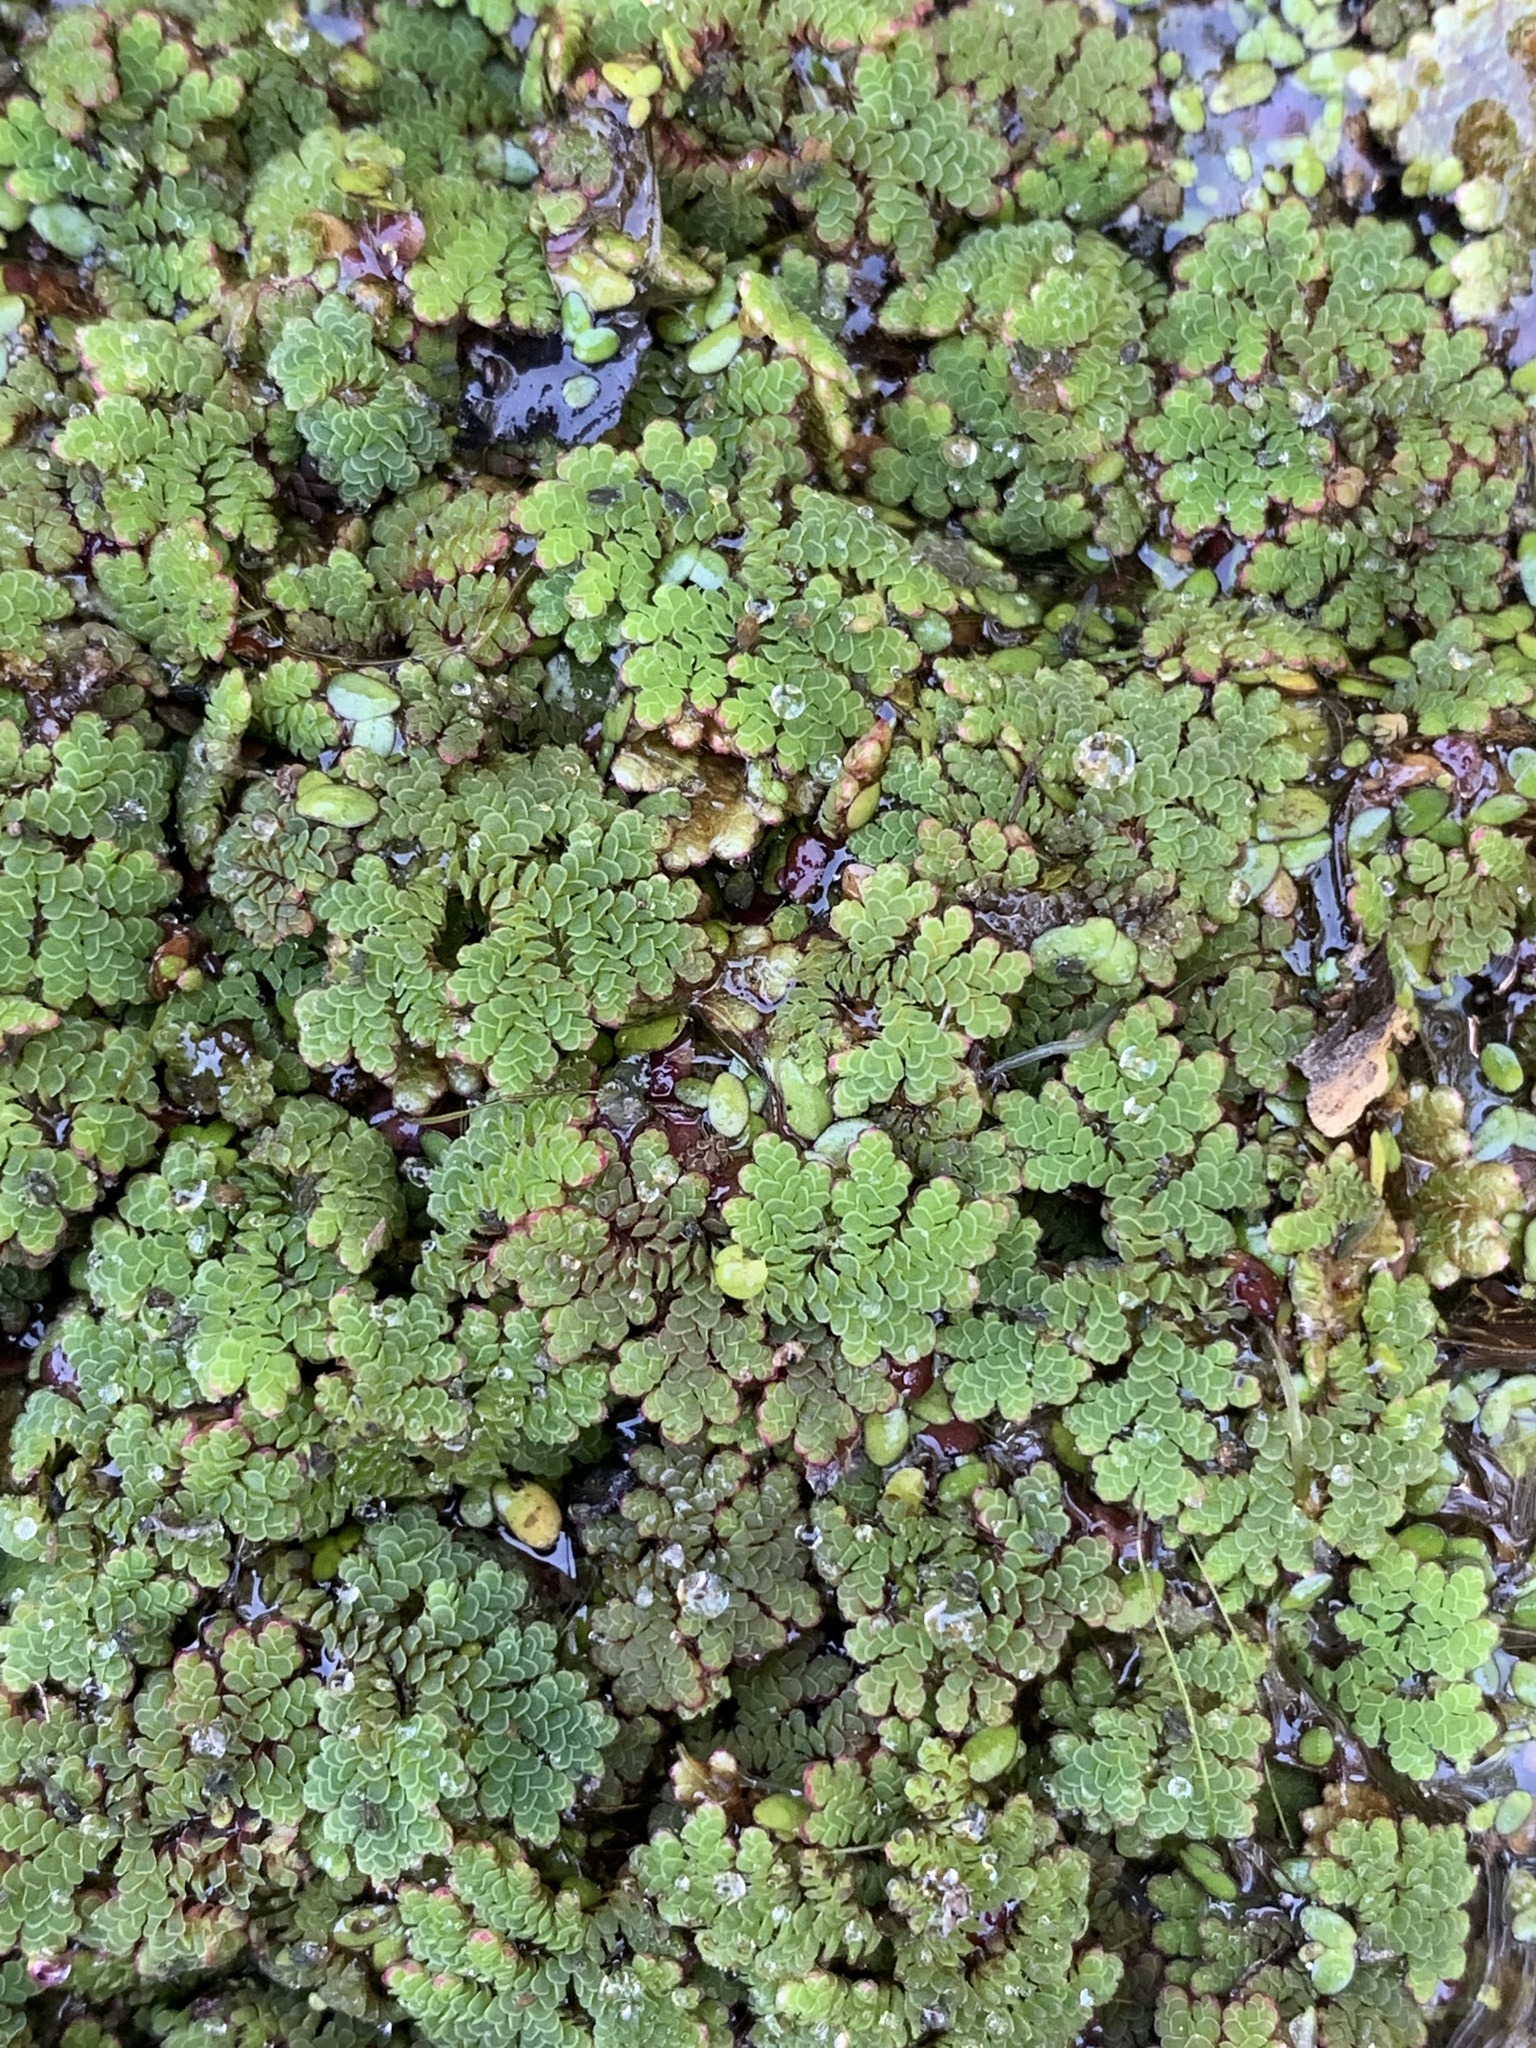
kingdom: Plantae
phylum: Tracheophyta
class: Polypodiopsida
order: Salviniales
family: Salviniaceae
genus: Azolla
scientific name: Azolla filiculoides
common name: Water fern
